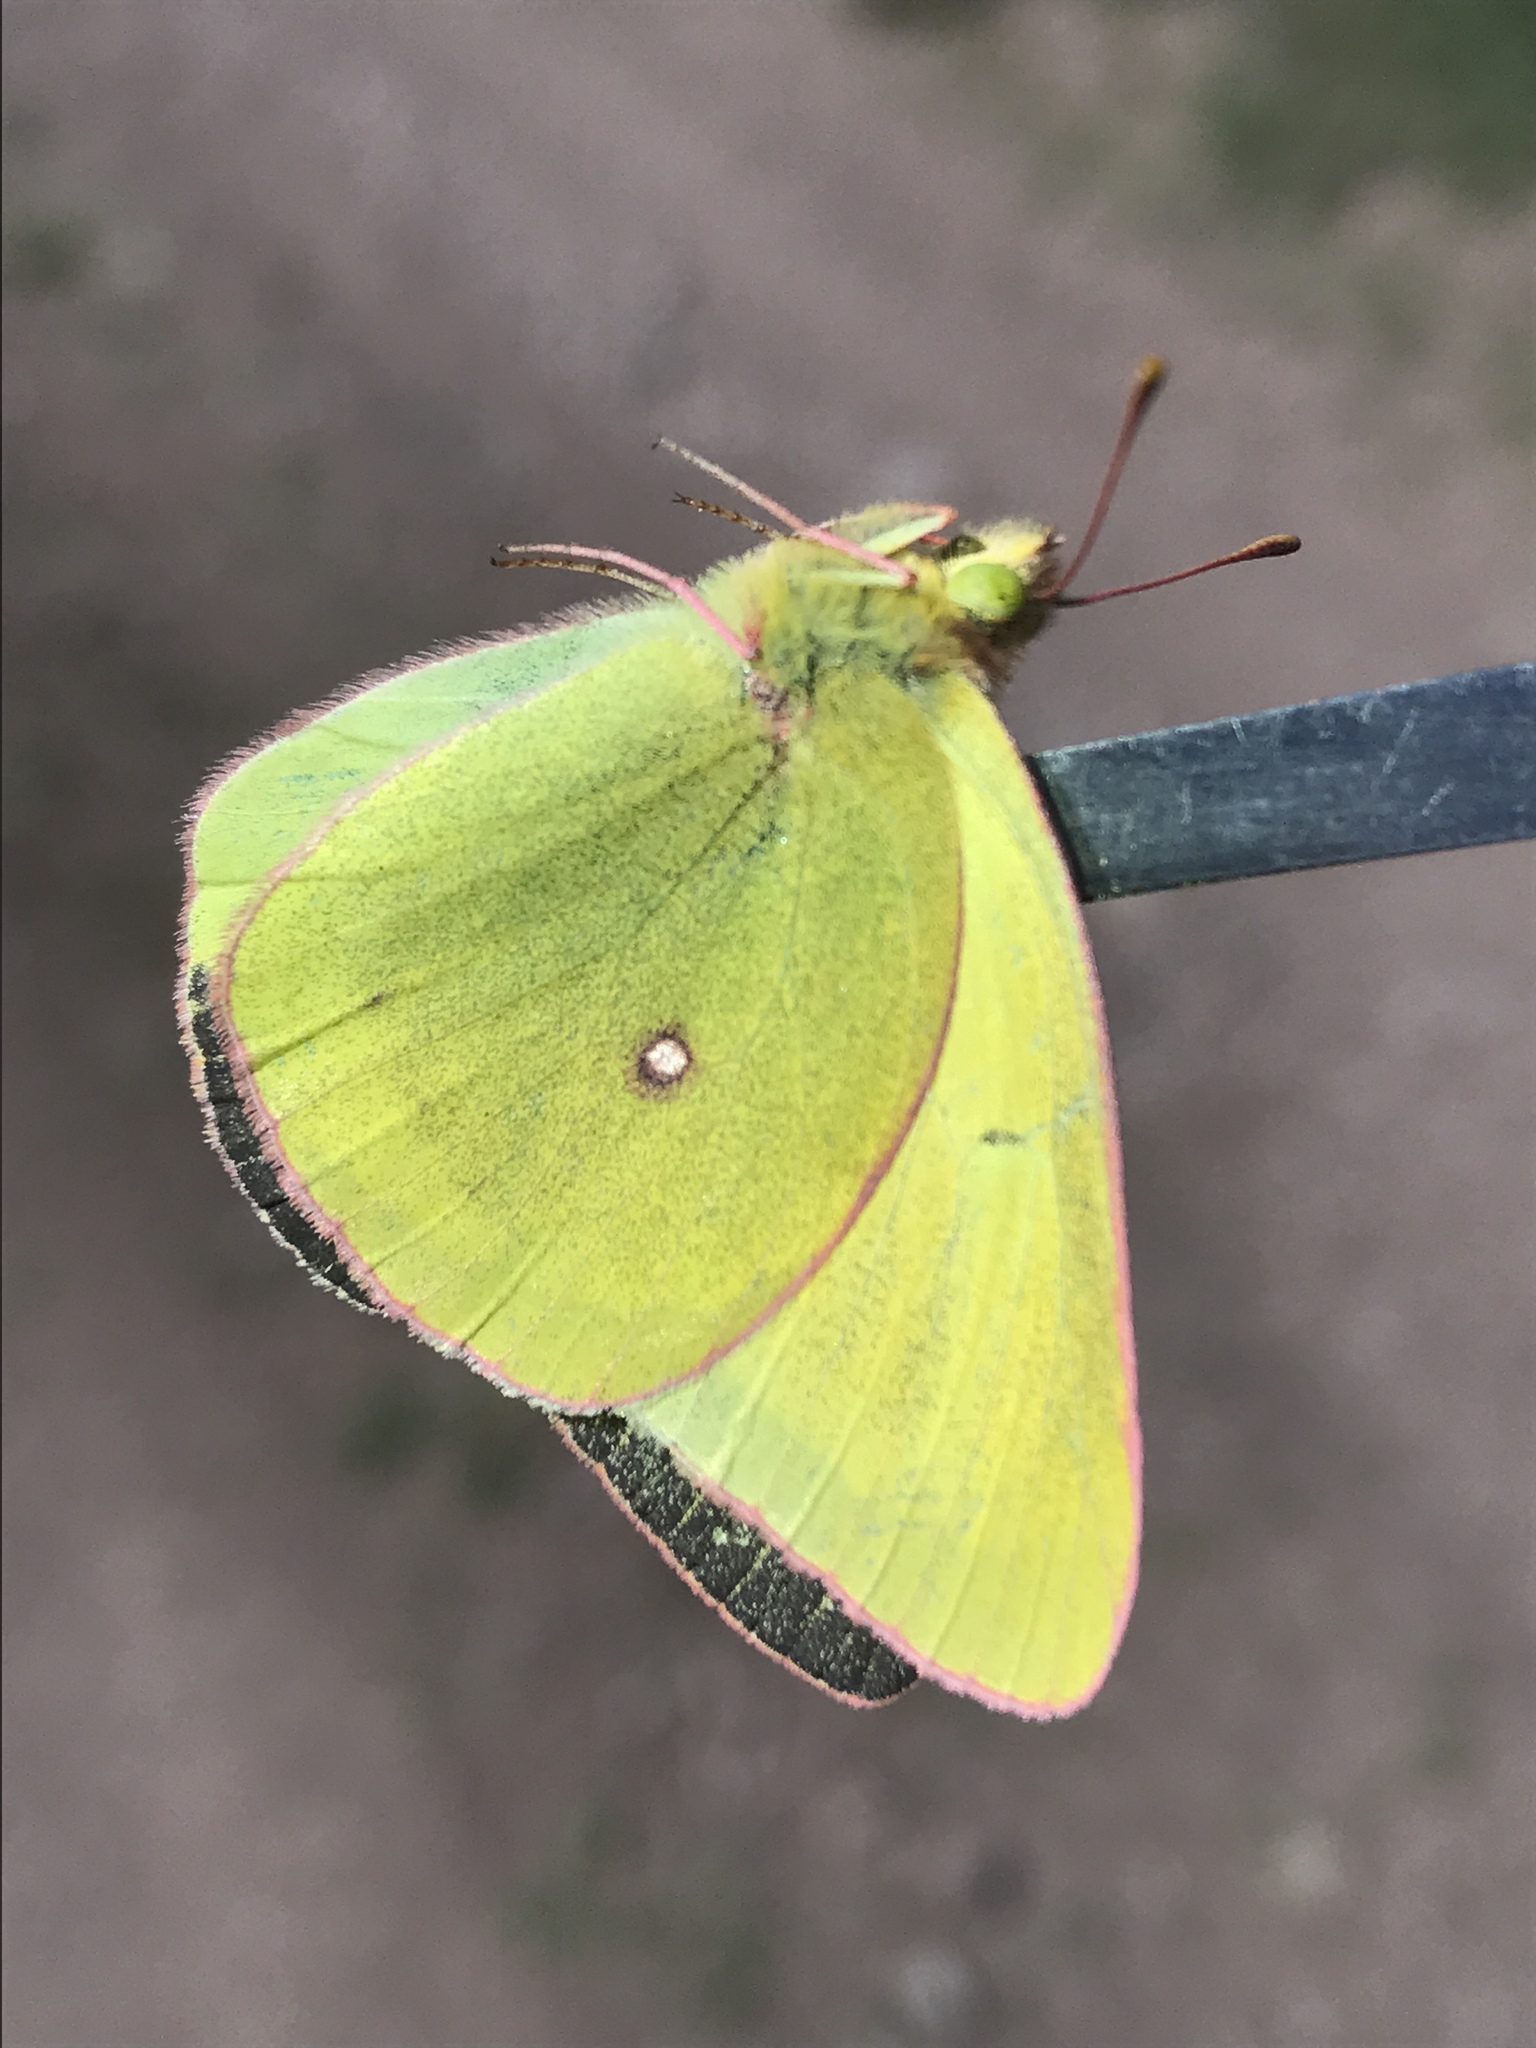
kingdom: Animalia
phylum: Arthropoda
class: Insecta
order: Lepidoptera
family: Pieridae
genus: Colias
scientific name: Colias occidentalis
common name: Western sulphur
